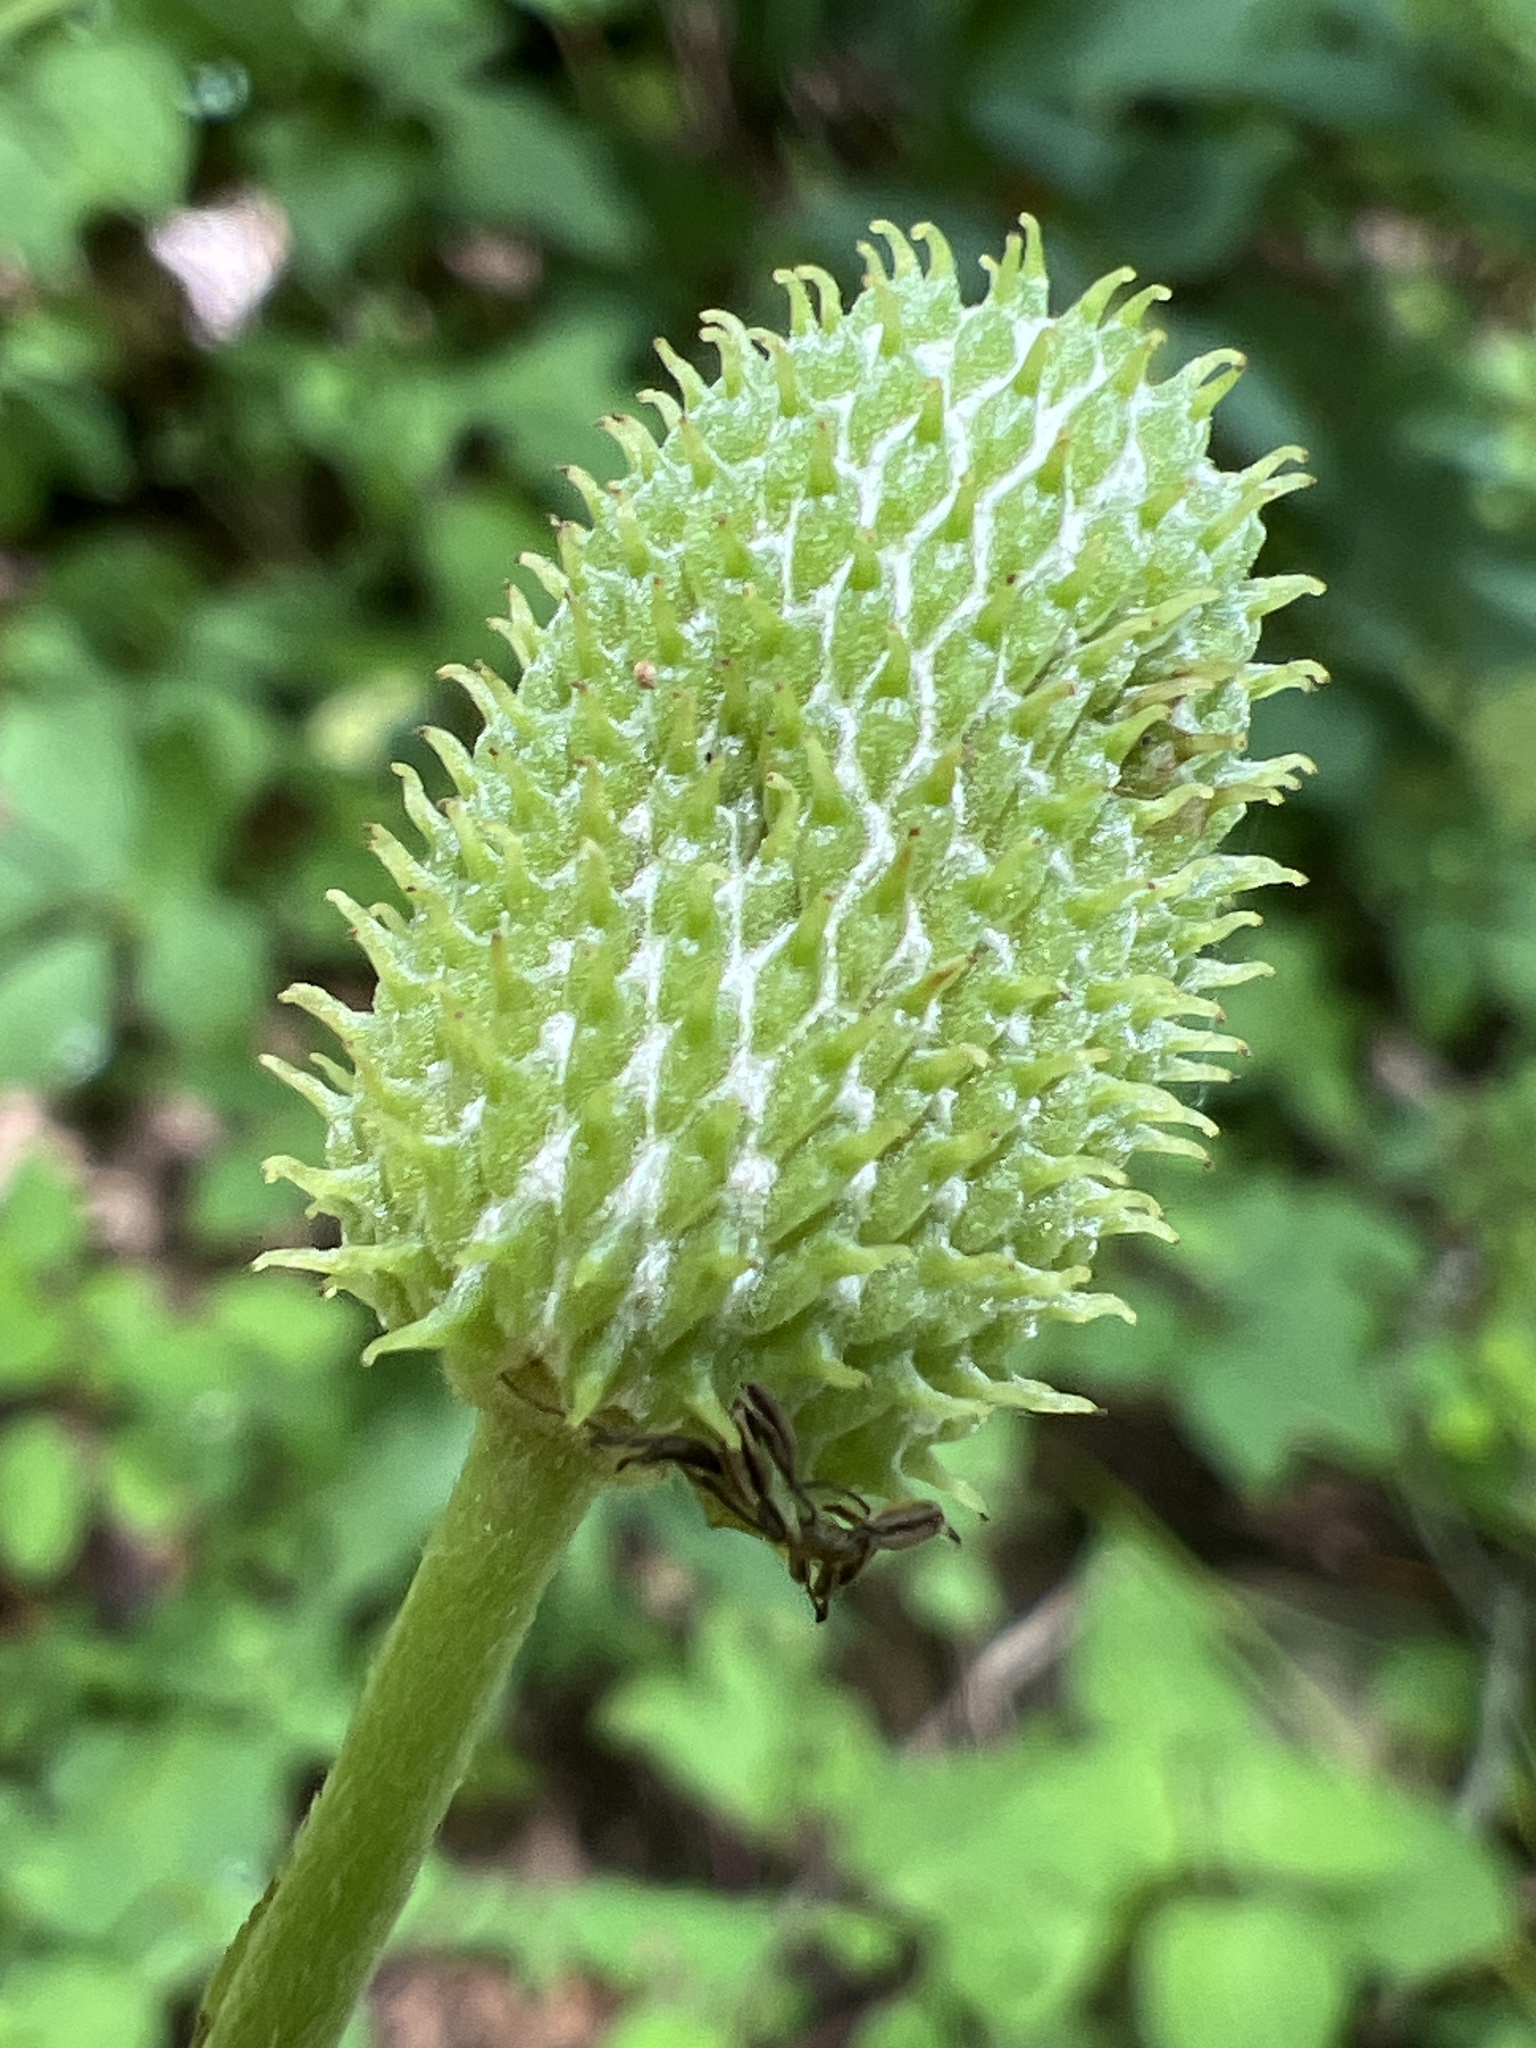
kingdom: Plantae
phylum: Tracheophyta
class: Magnoliopsida
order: Ranunculales
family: Ranunculaceae
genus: Anemone
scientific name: Anemone virginiana
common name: Tall anemone
